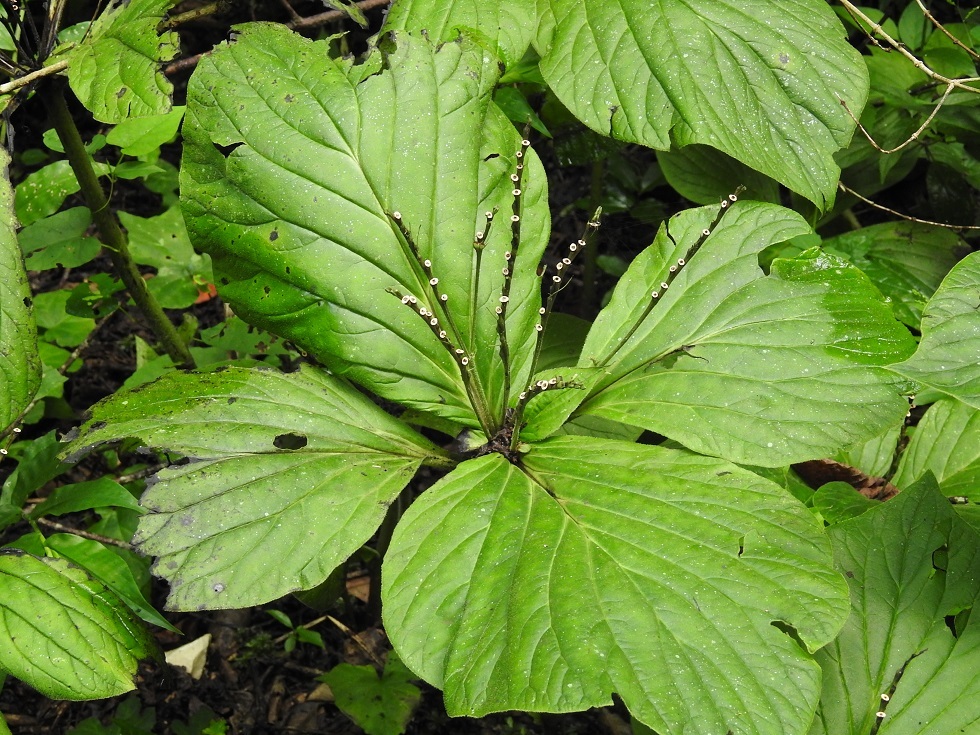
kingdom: Plantae
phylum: Tracheophyta
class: Magnoliopsida
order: Gentianales
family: Loganiaceae
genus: Spigelia
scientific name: Spigelia splendens
